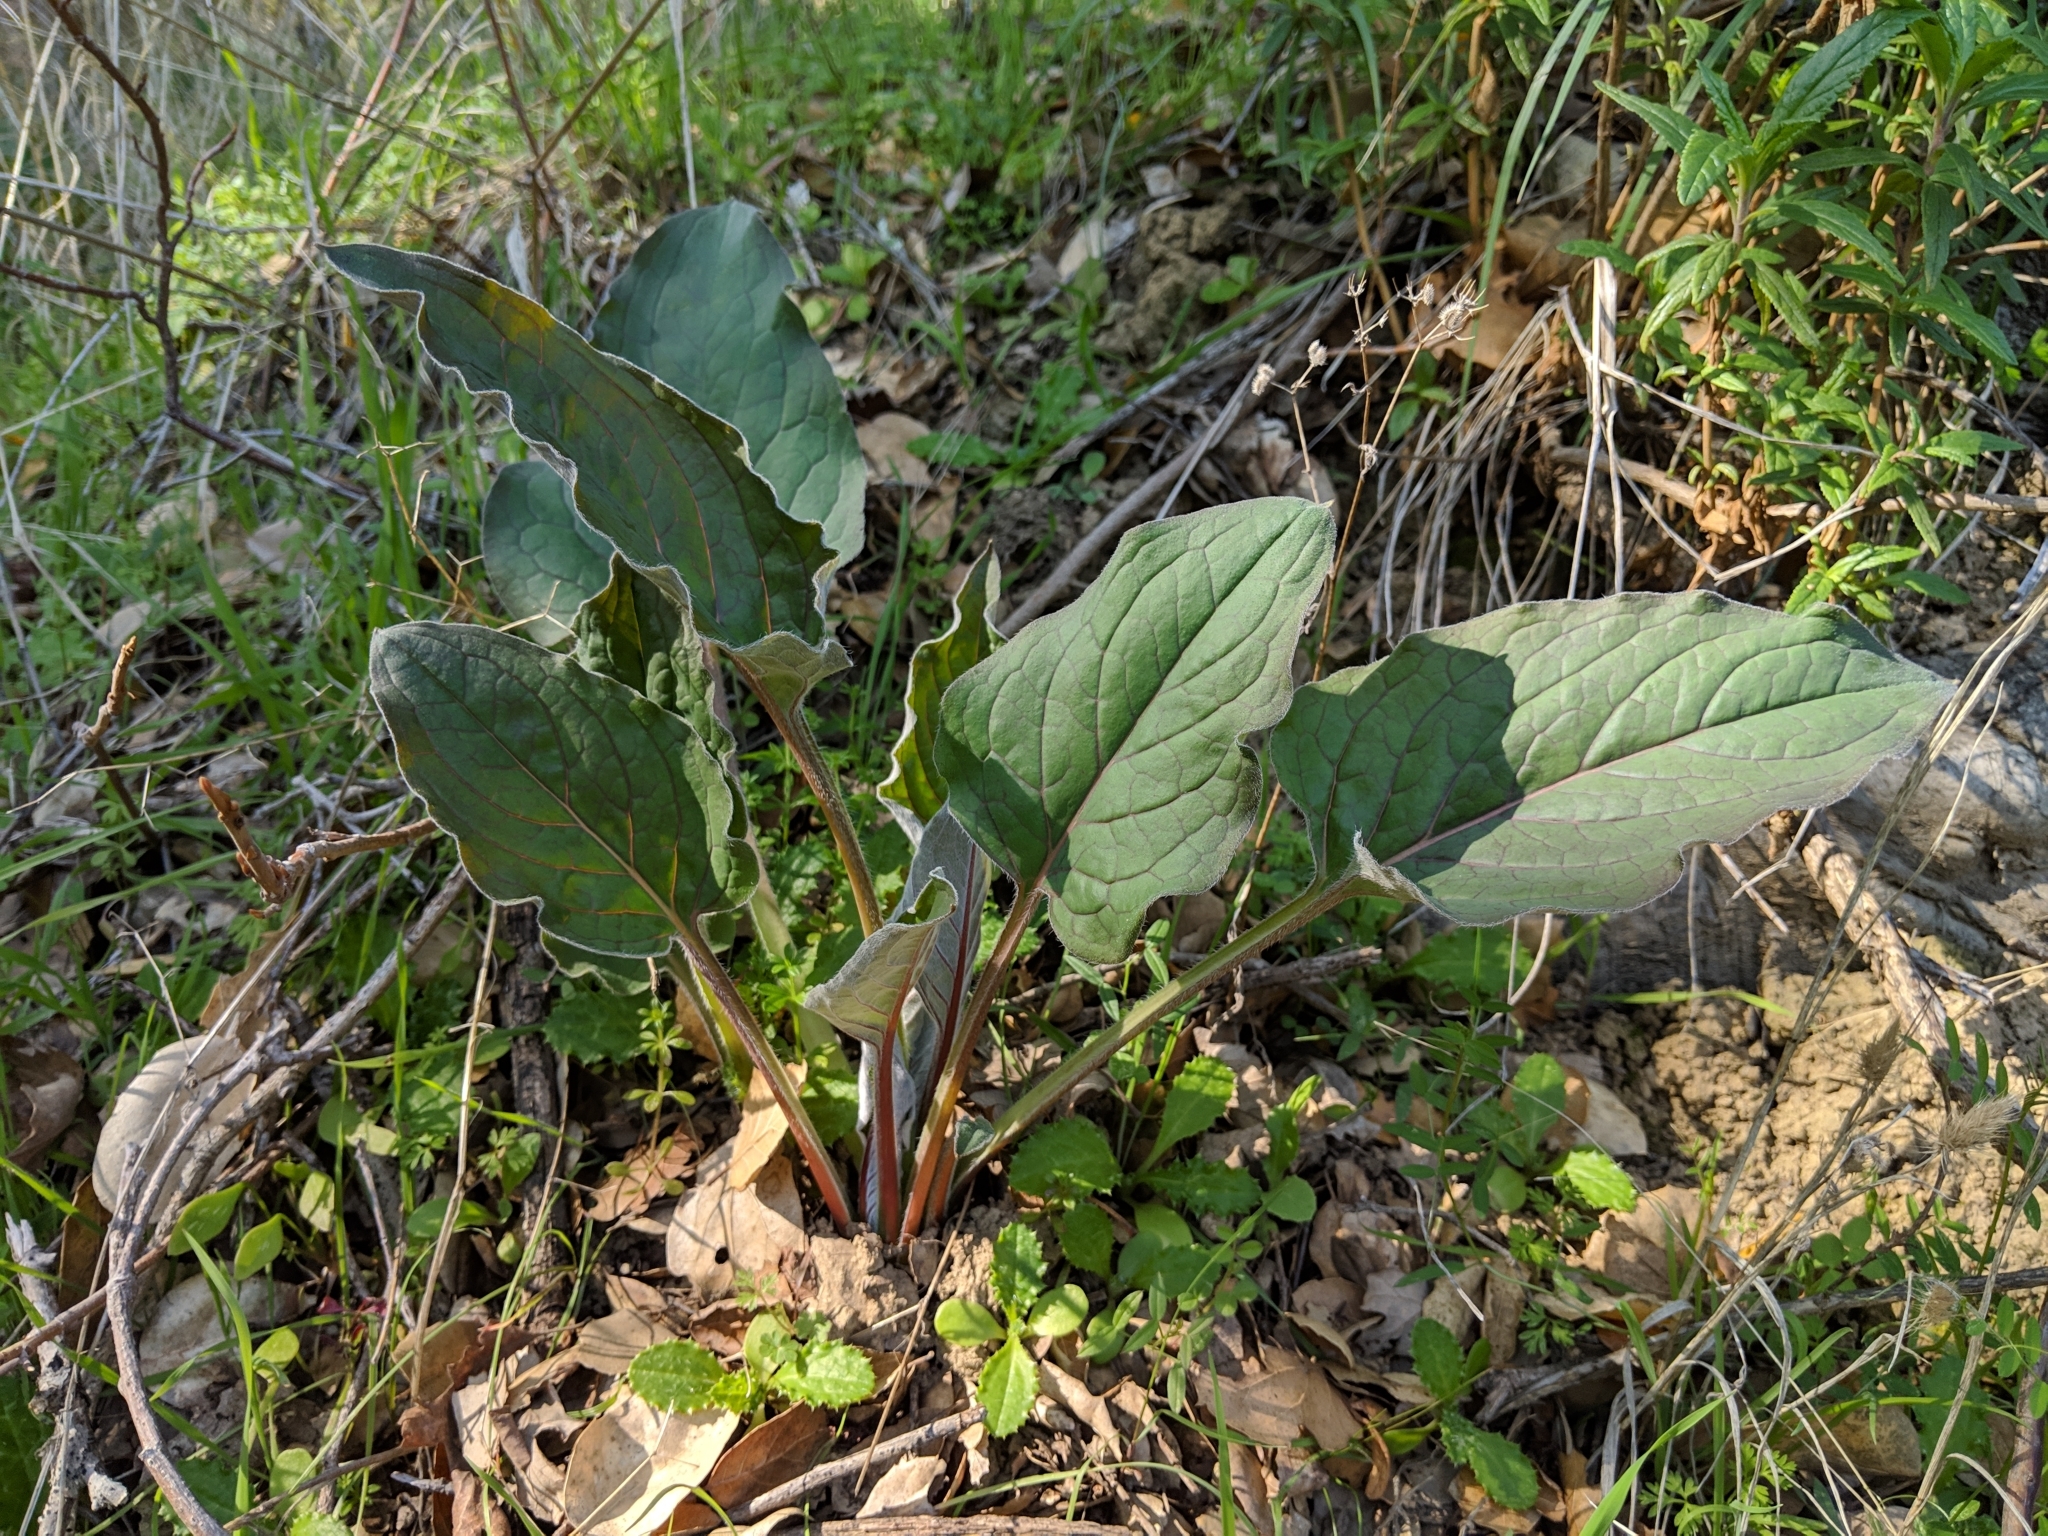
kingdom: Plantae
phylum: Tracheophyta
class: Magnoliopsida
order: Boraginales
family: Boraginaceae
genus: Adelinia
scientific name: Adelinia grande
